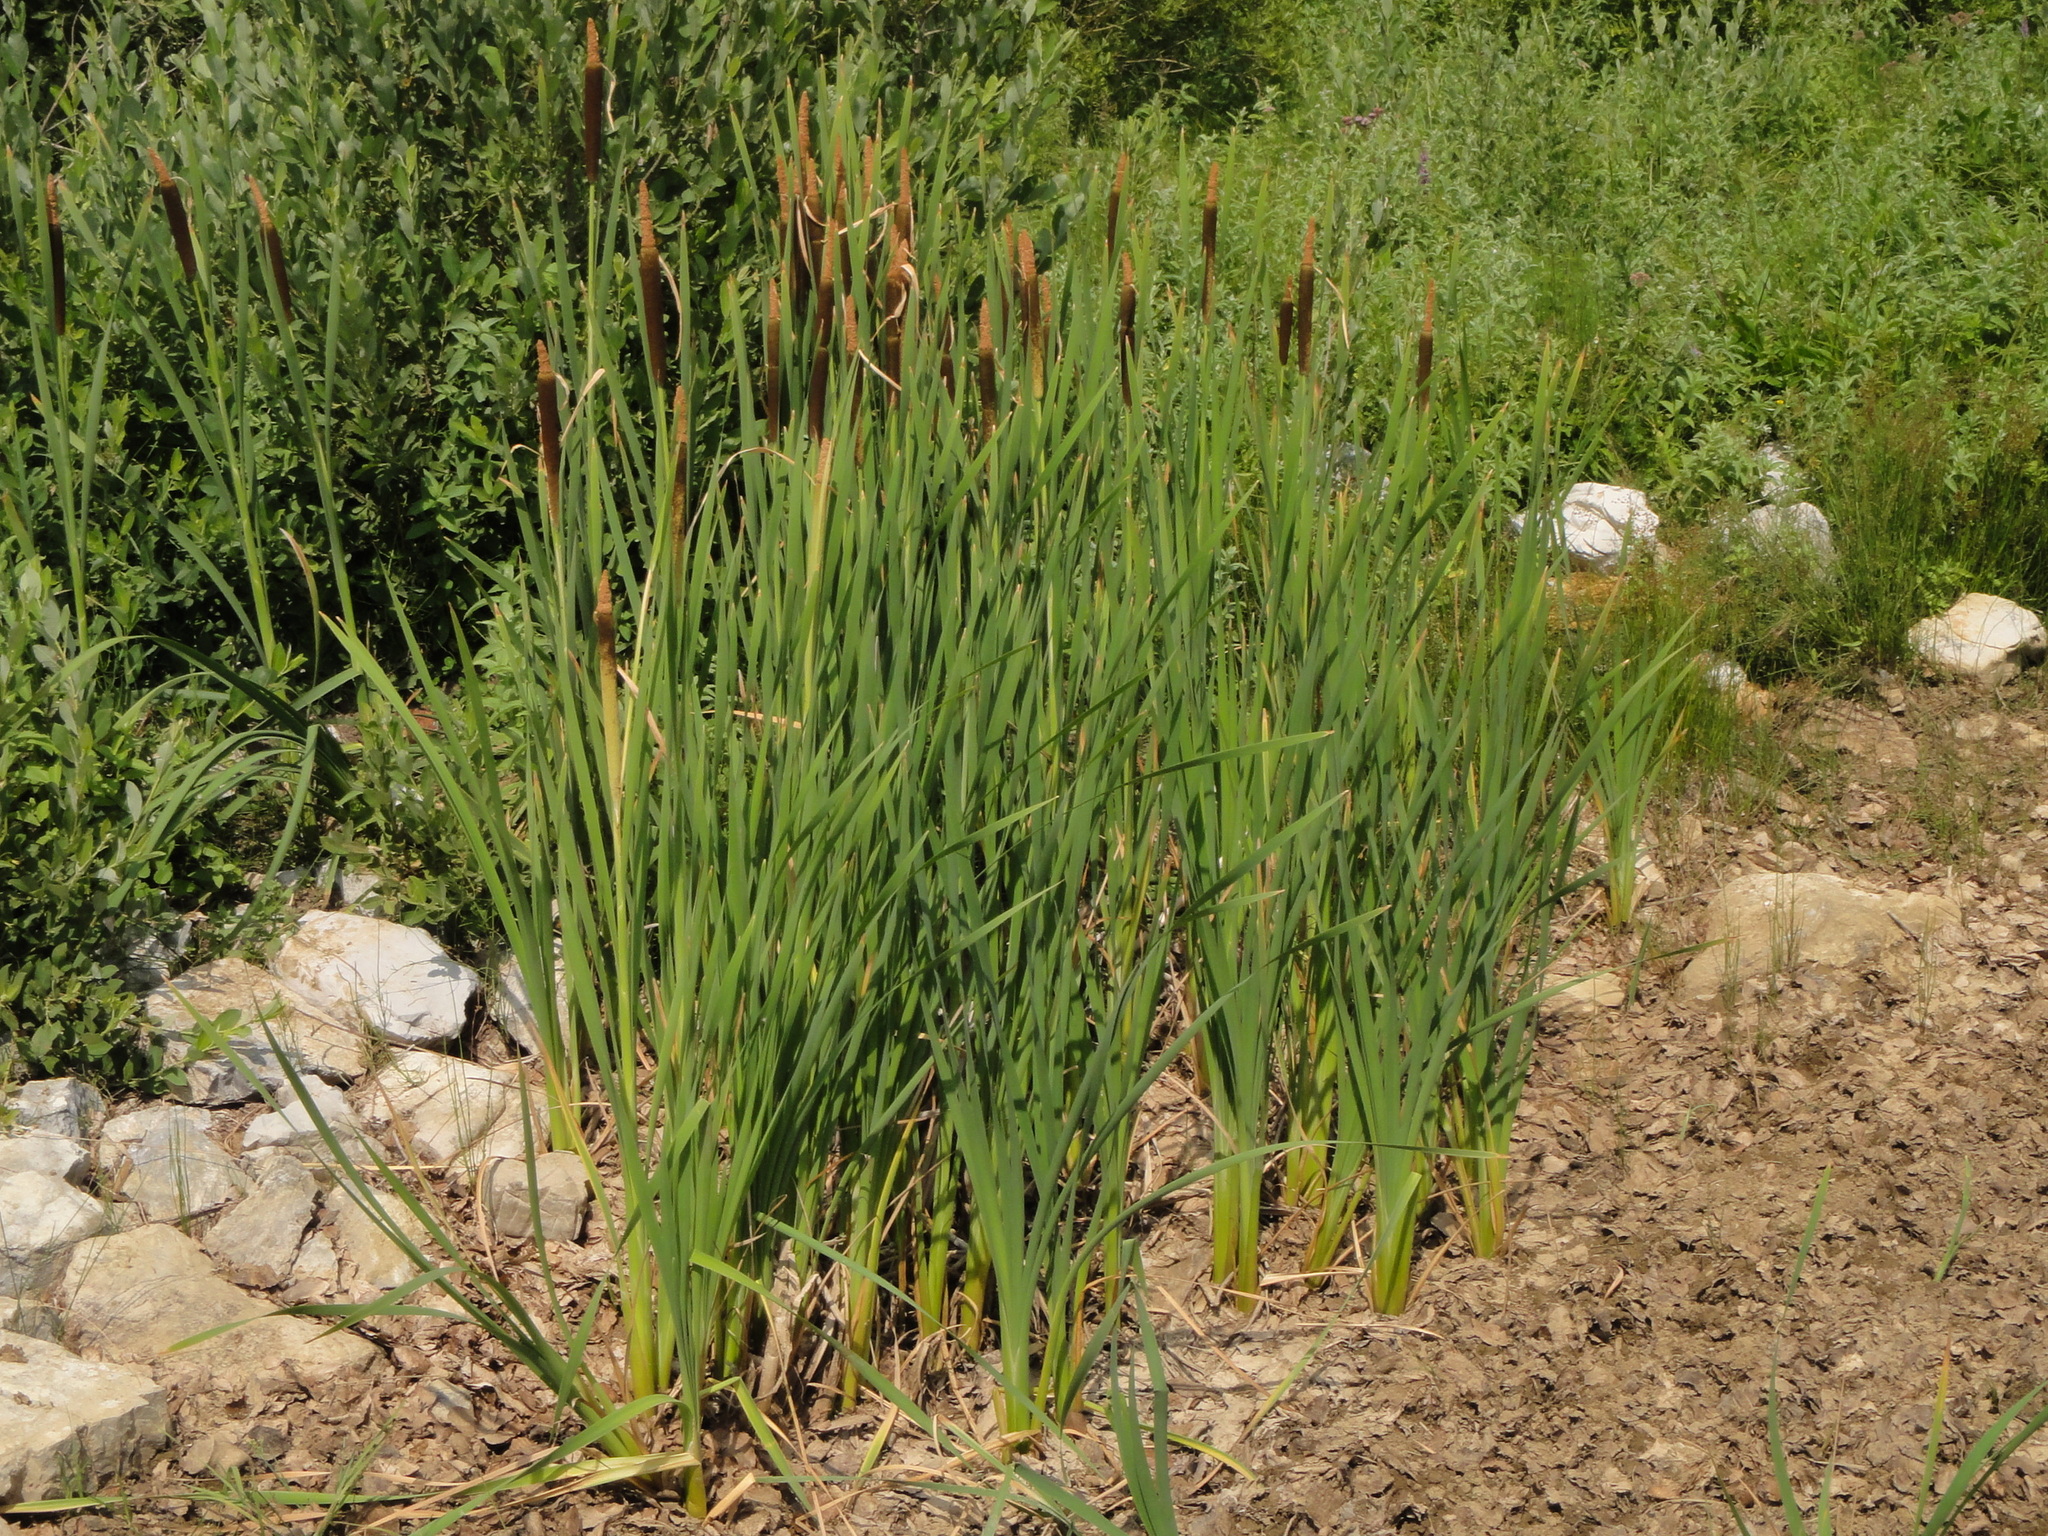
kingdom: Plantae
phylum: Tracheophyta
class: Liliopsida
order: Poales
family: Typhaceae
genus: Typha
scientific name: Typha latifolia
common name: Broadleaf cattail
